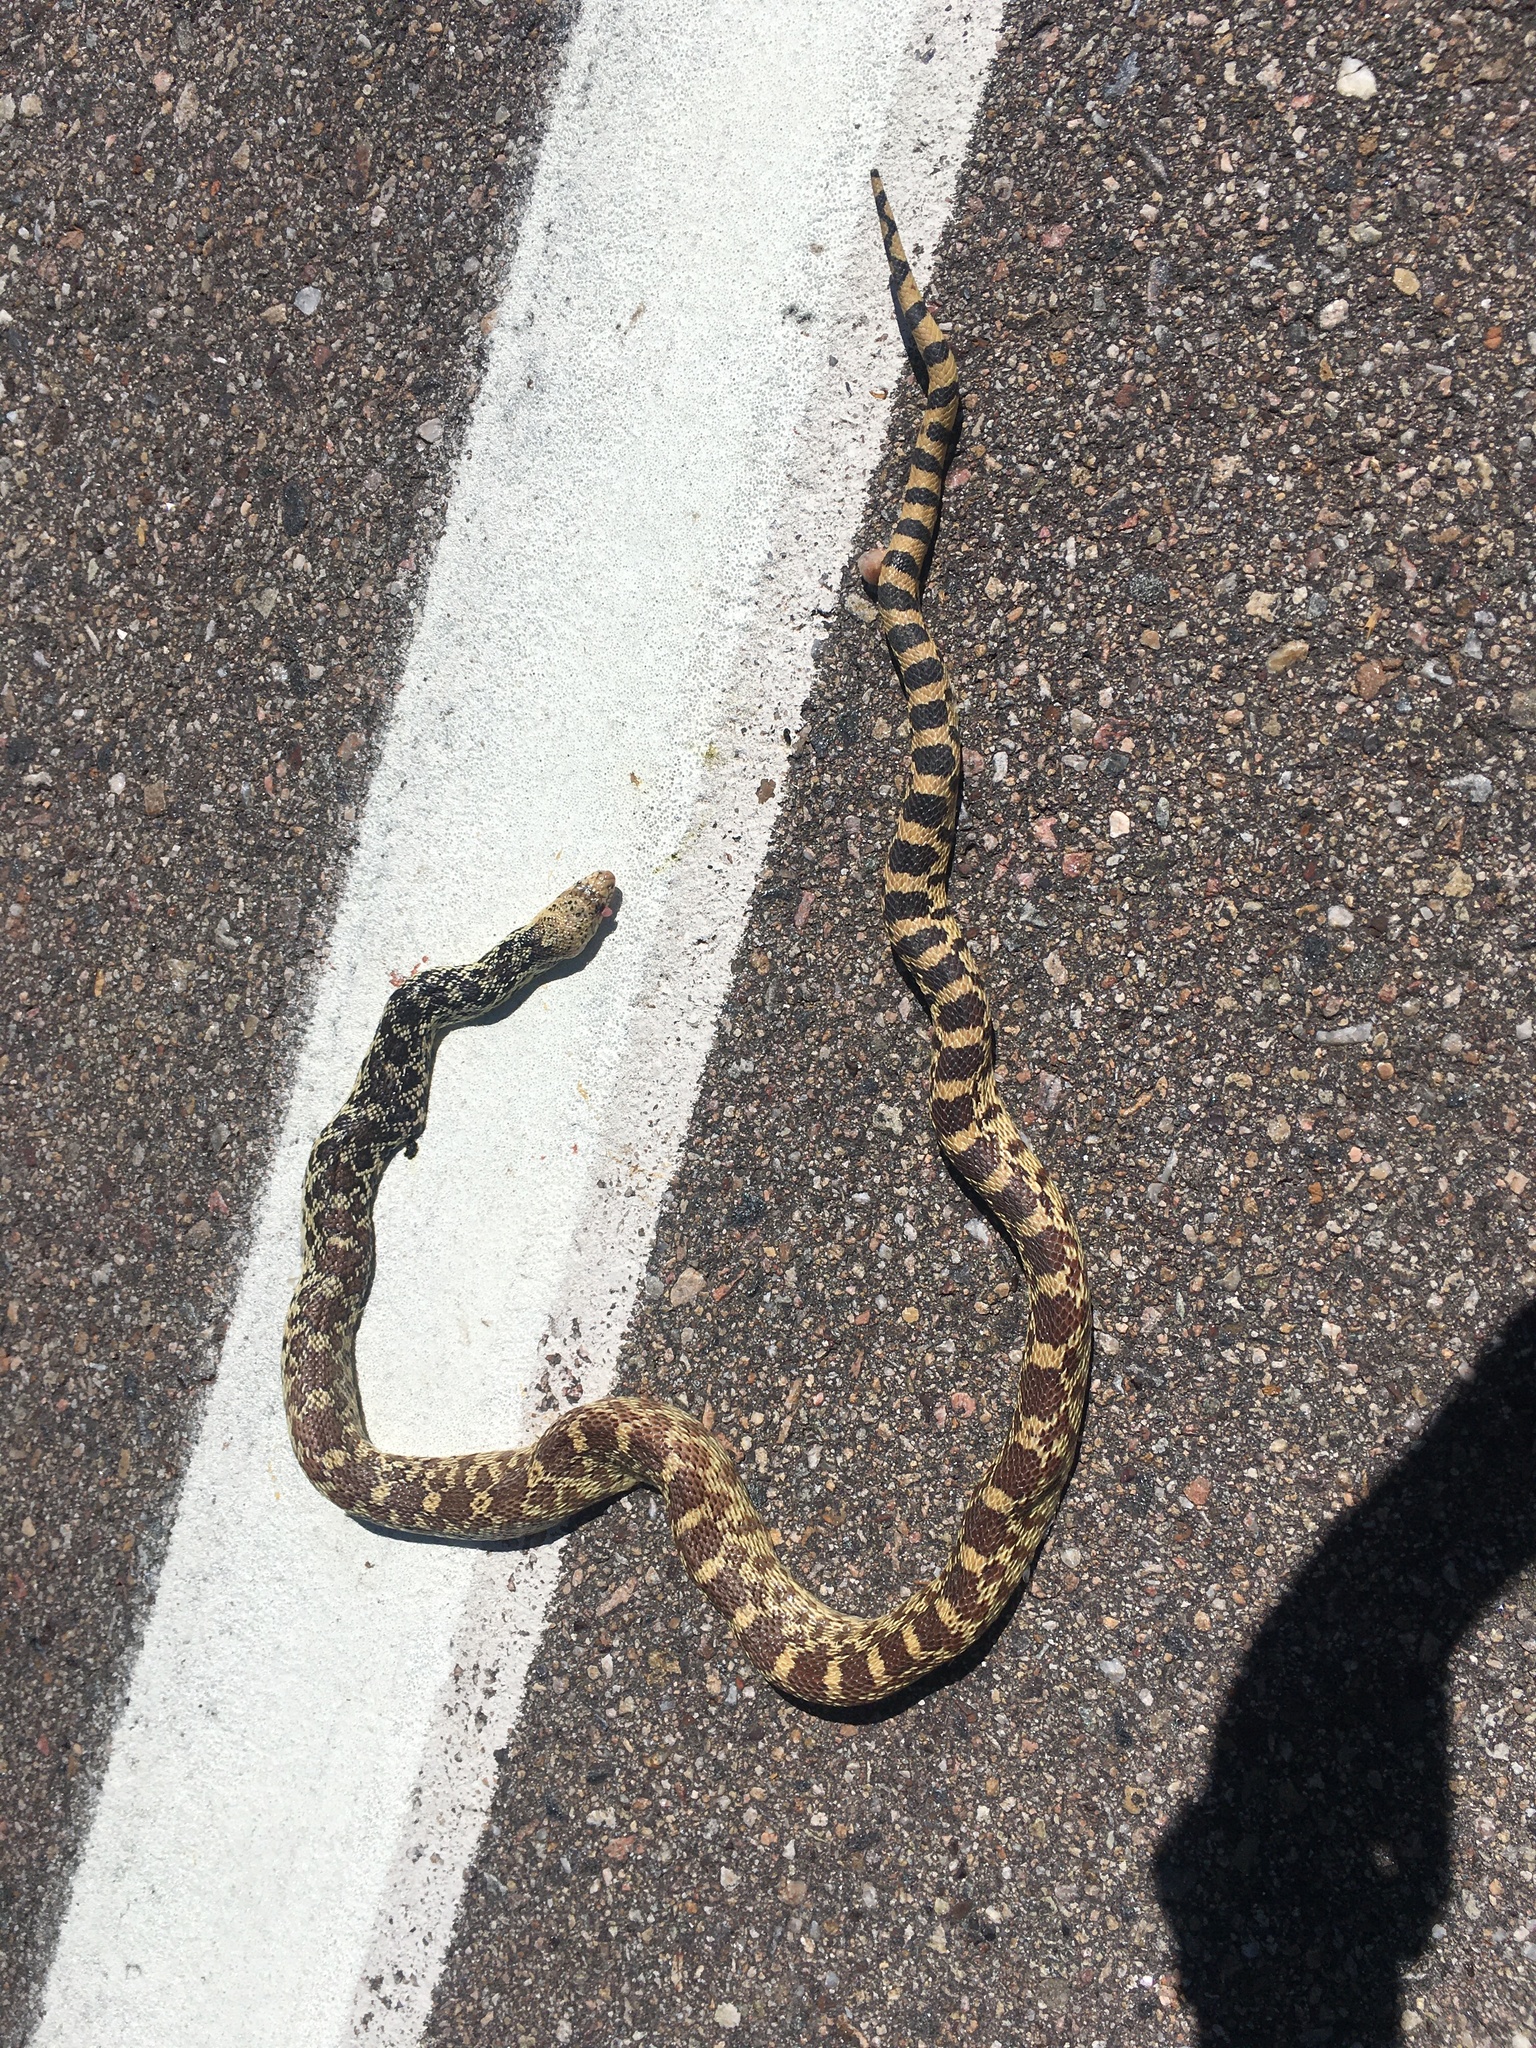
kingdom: Animalia
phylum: Chordata
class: Squamata
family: Colubridae
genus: Pituophis
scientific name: Pituophis catenifer
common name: Gopher snake
